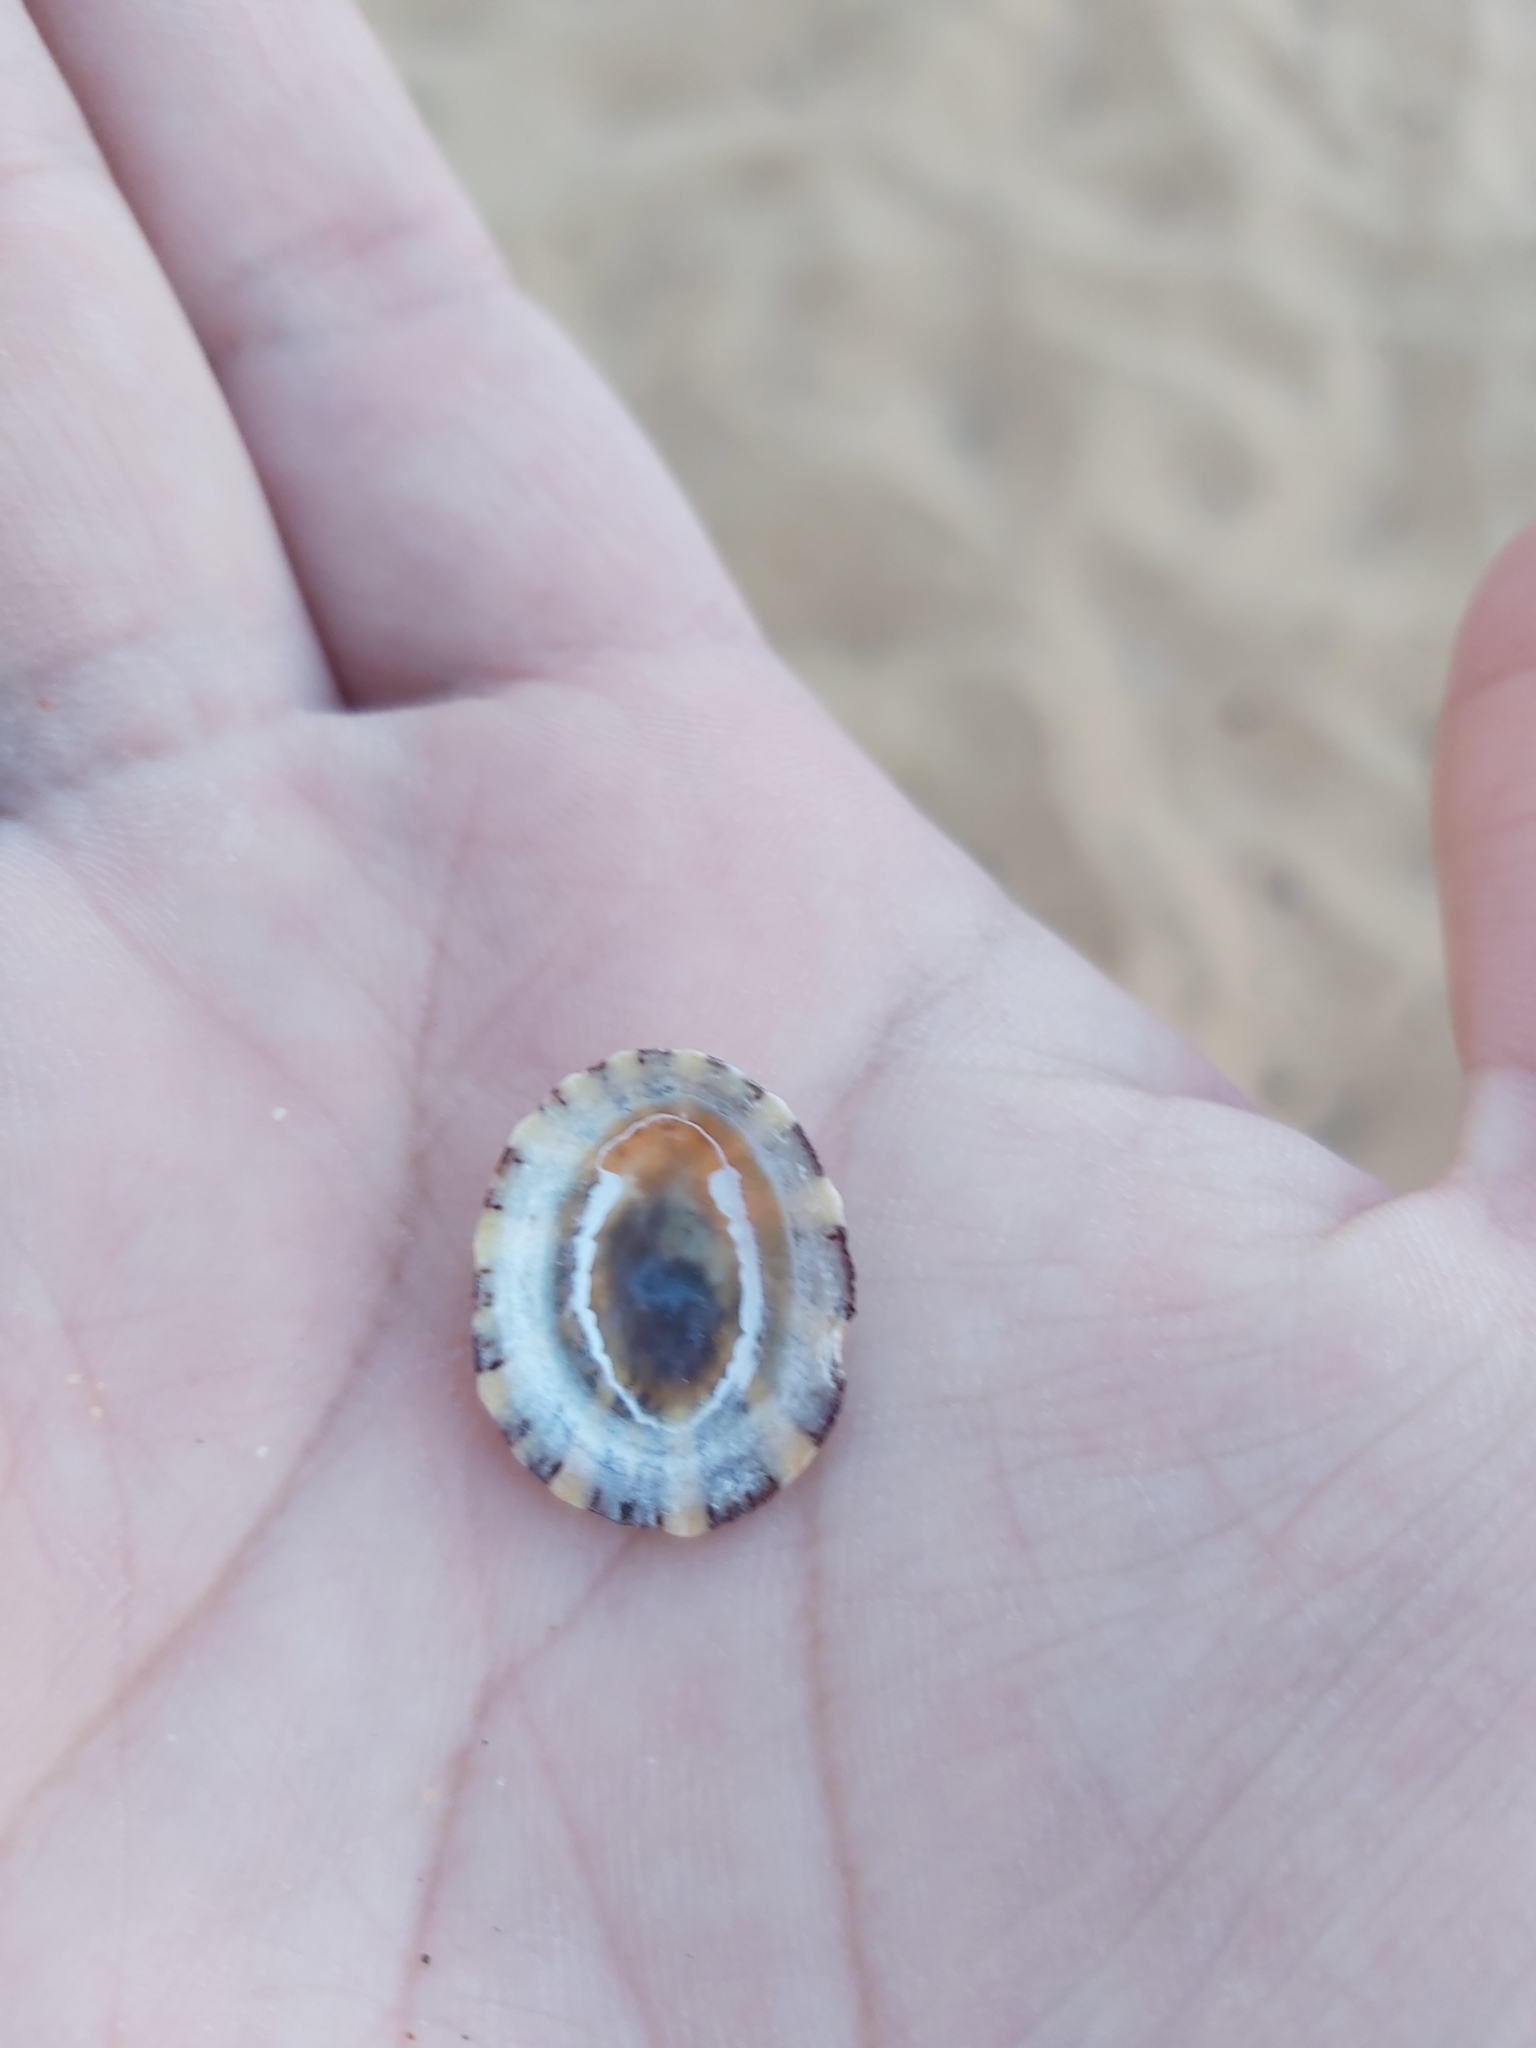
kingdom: Animalia
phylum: Mollusca
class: Gastropoda
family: Nacellidae
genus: Cellana
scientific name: Cellana tramoserica
